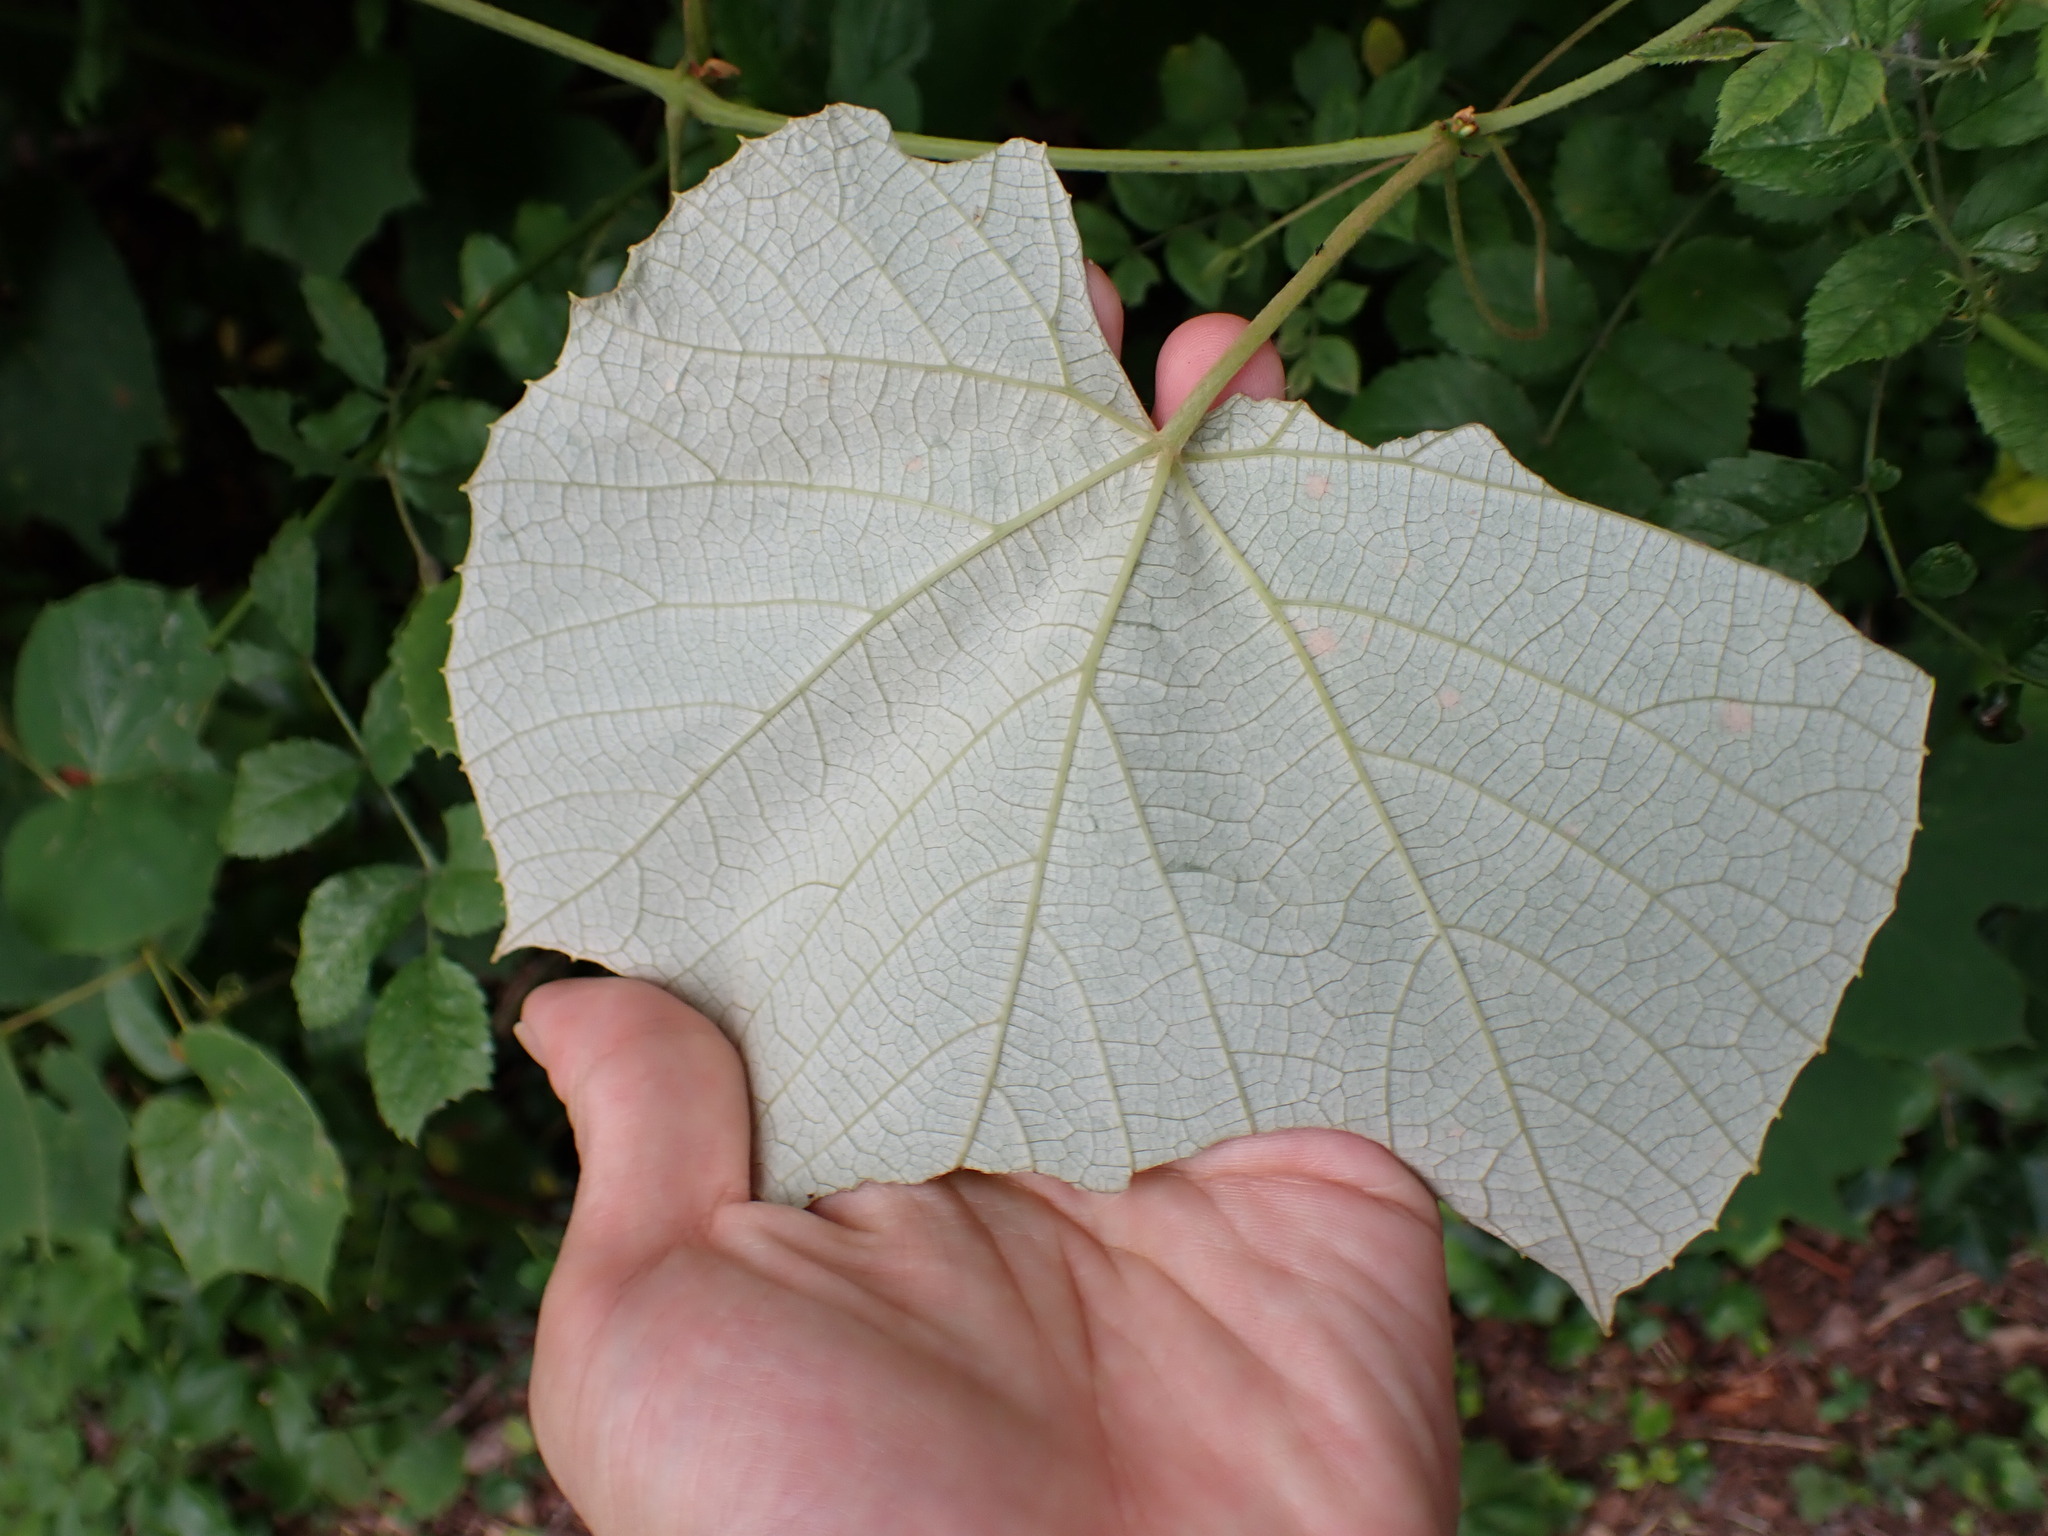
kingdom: Plantae
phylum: Tracheophyta
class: Magnoliopsida
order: Vitales
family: Vitaceae
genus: Vitis
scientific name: Vitis labrusca
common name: Concord grape
